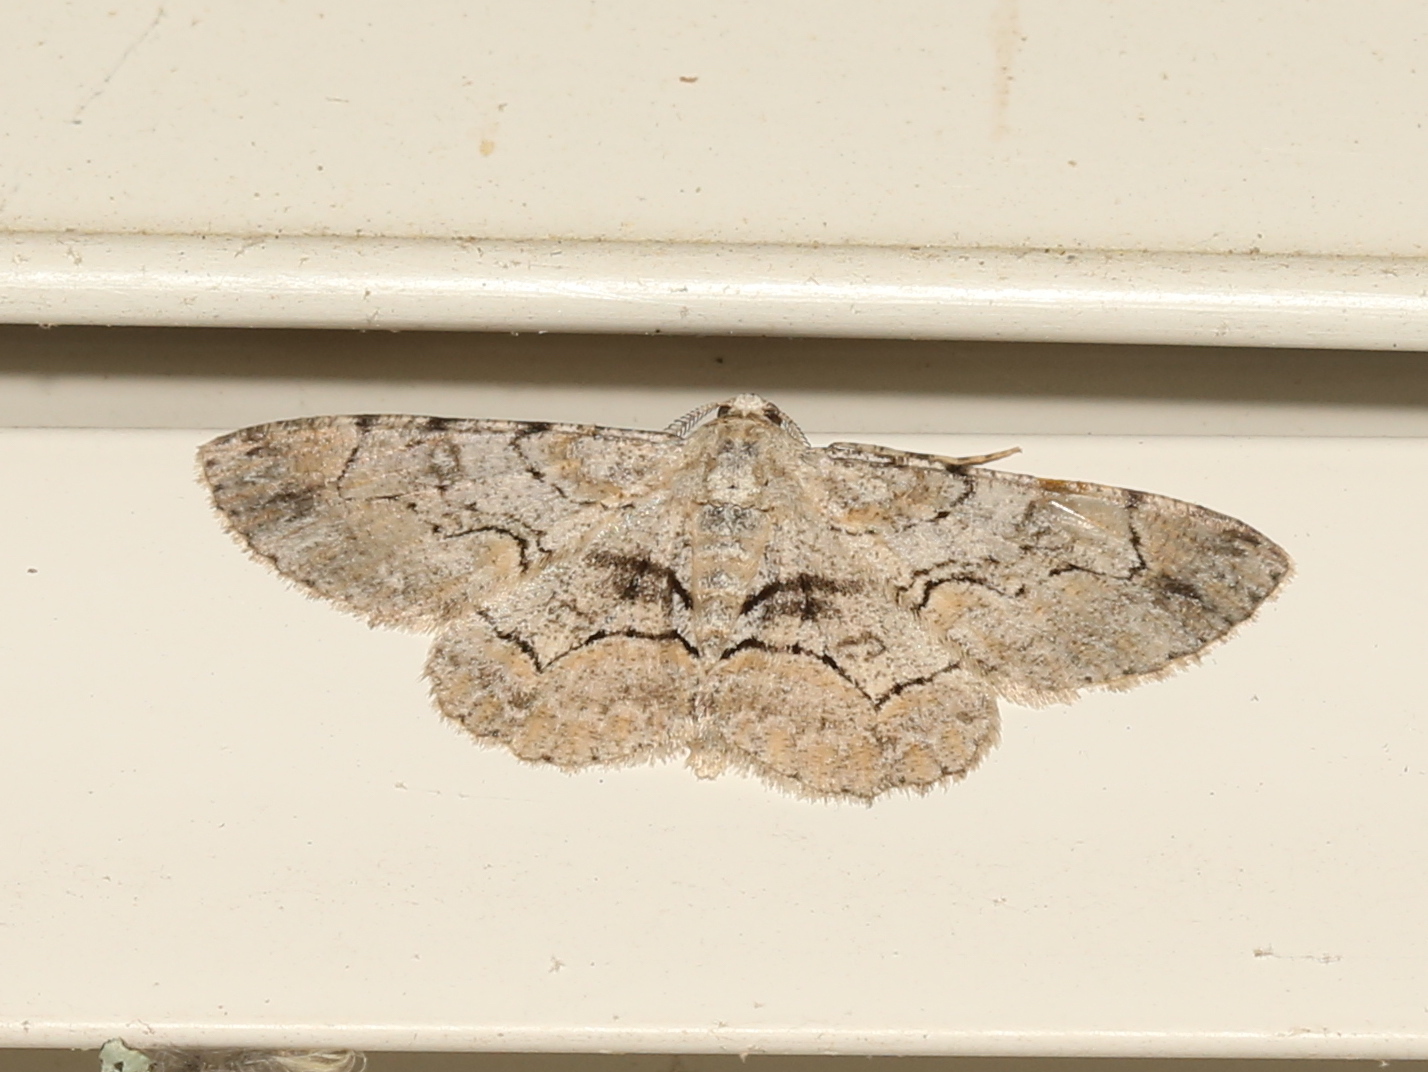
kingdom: Animalia
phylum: Arthropoda
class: Insecta
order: Lepidoptera
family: Geometridae
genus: Iridopsis
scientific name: Iridopsis larvaria
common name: Bent-line gray
